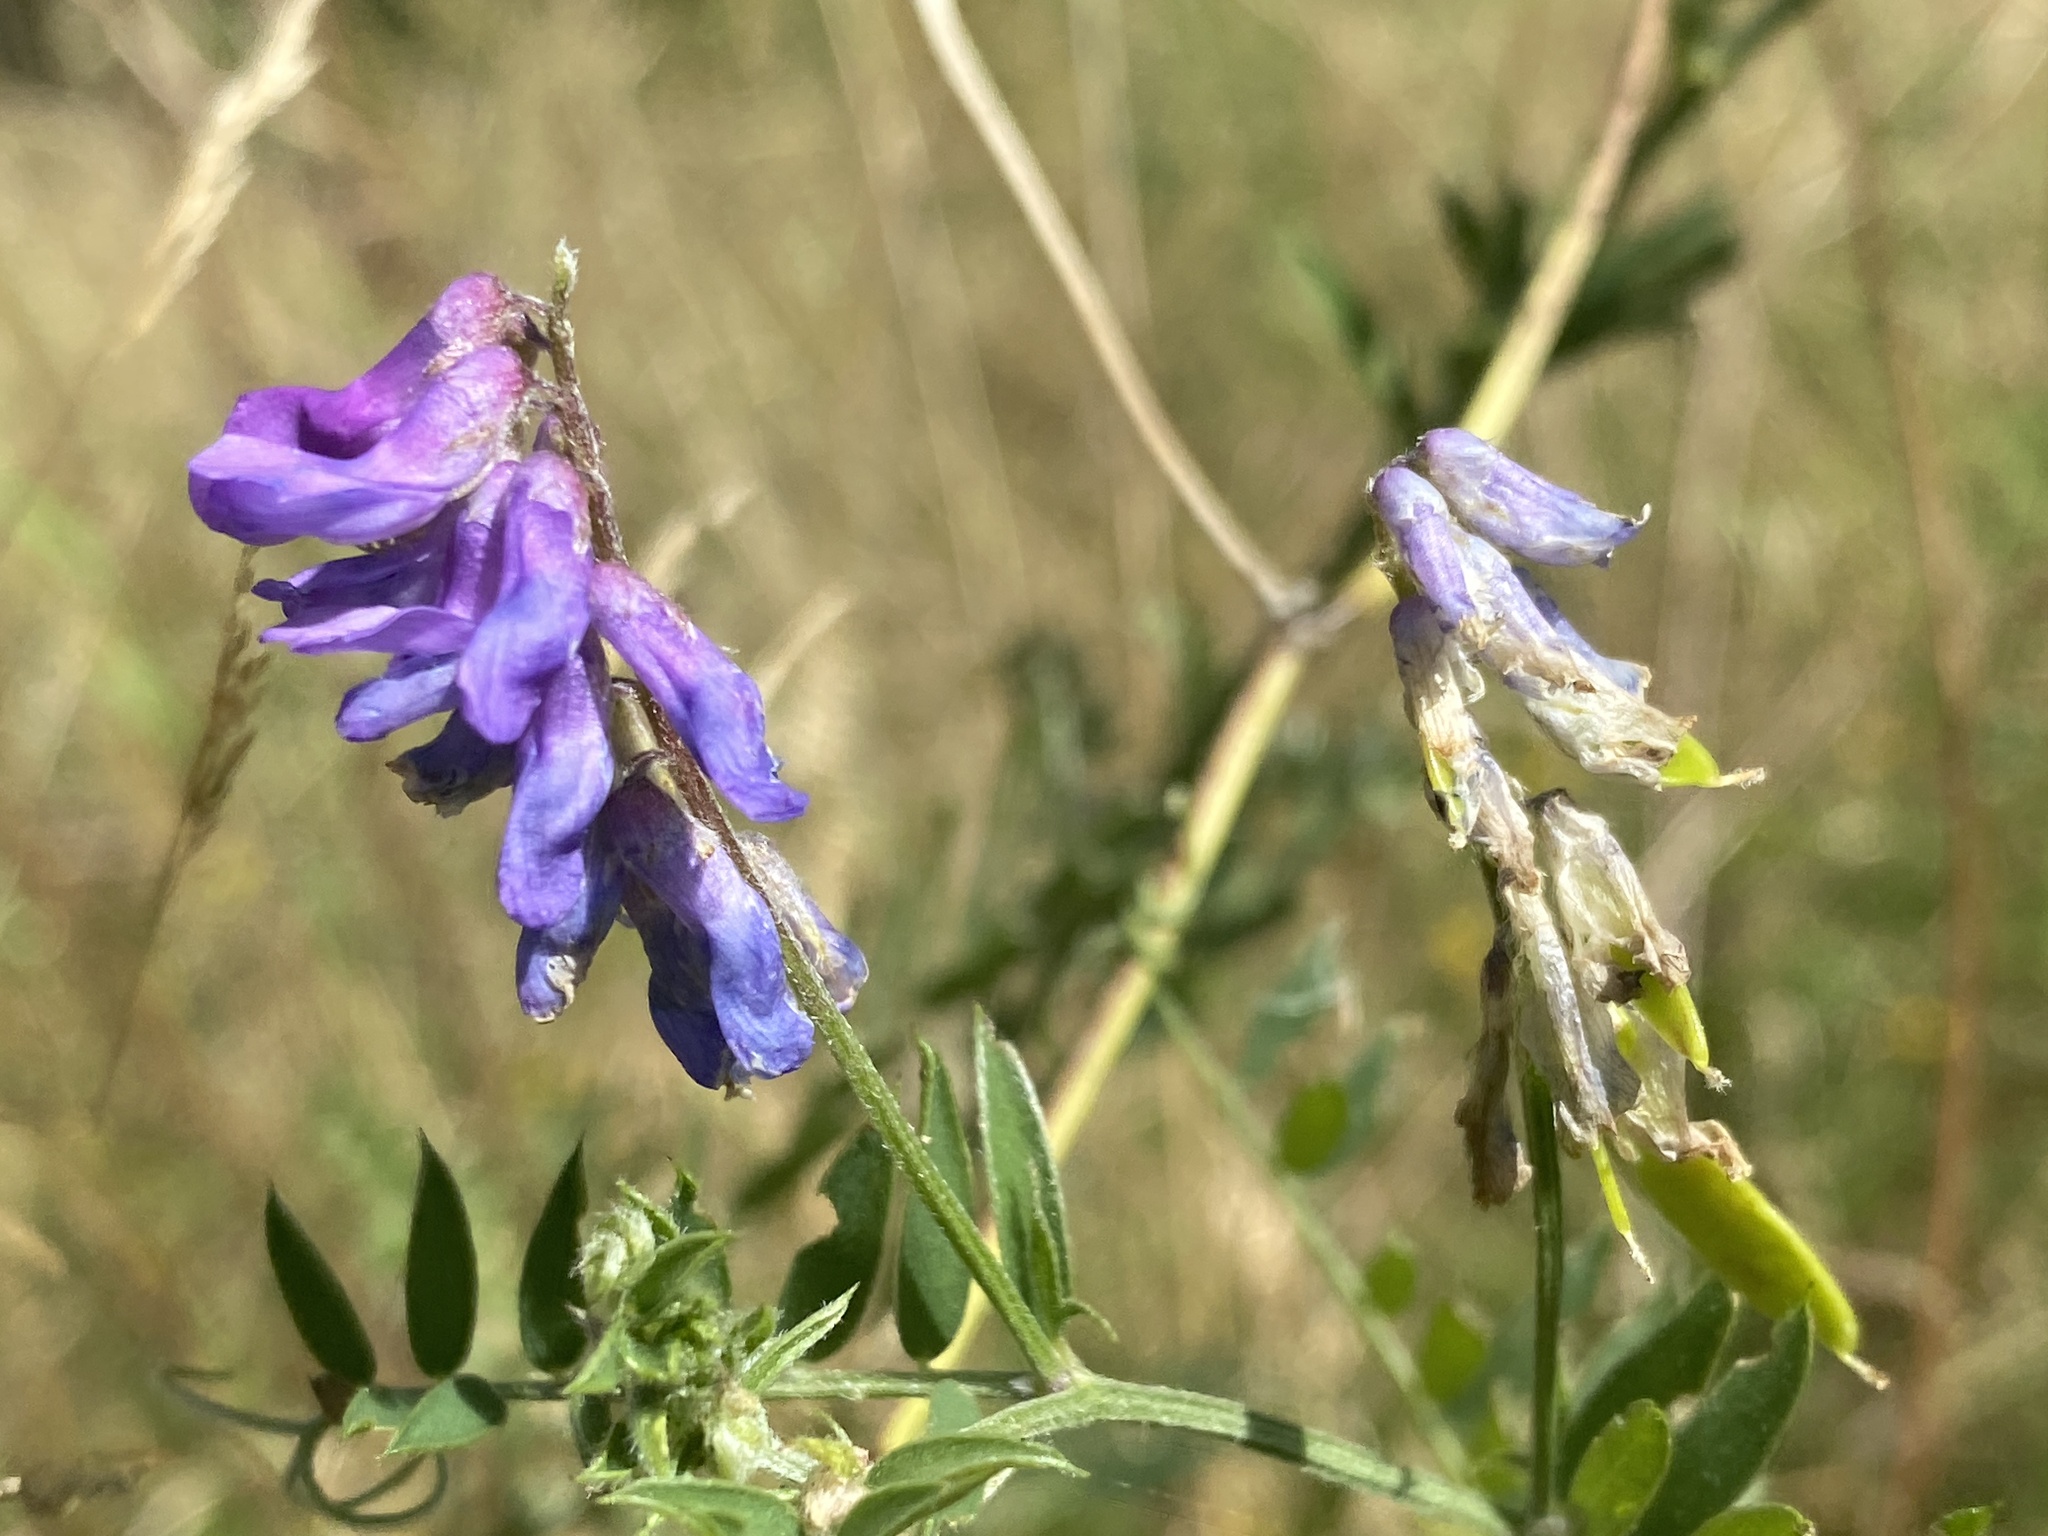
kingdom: Plantae
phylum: Tracheophyta
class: Magnoliopsida
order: Fabales
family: Fabaceae
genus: Vicia
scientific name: Vicia cracca
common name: Bird vetch
